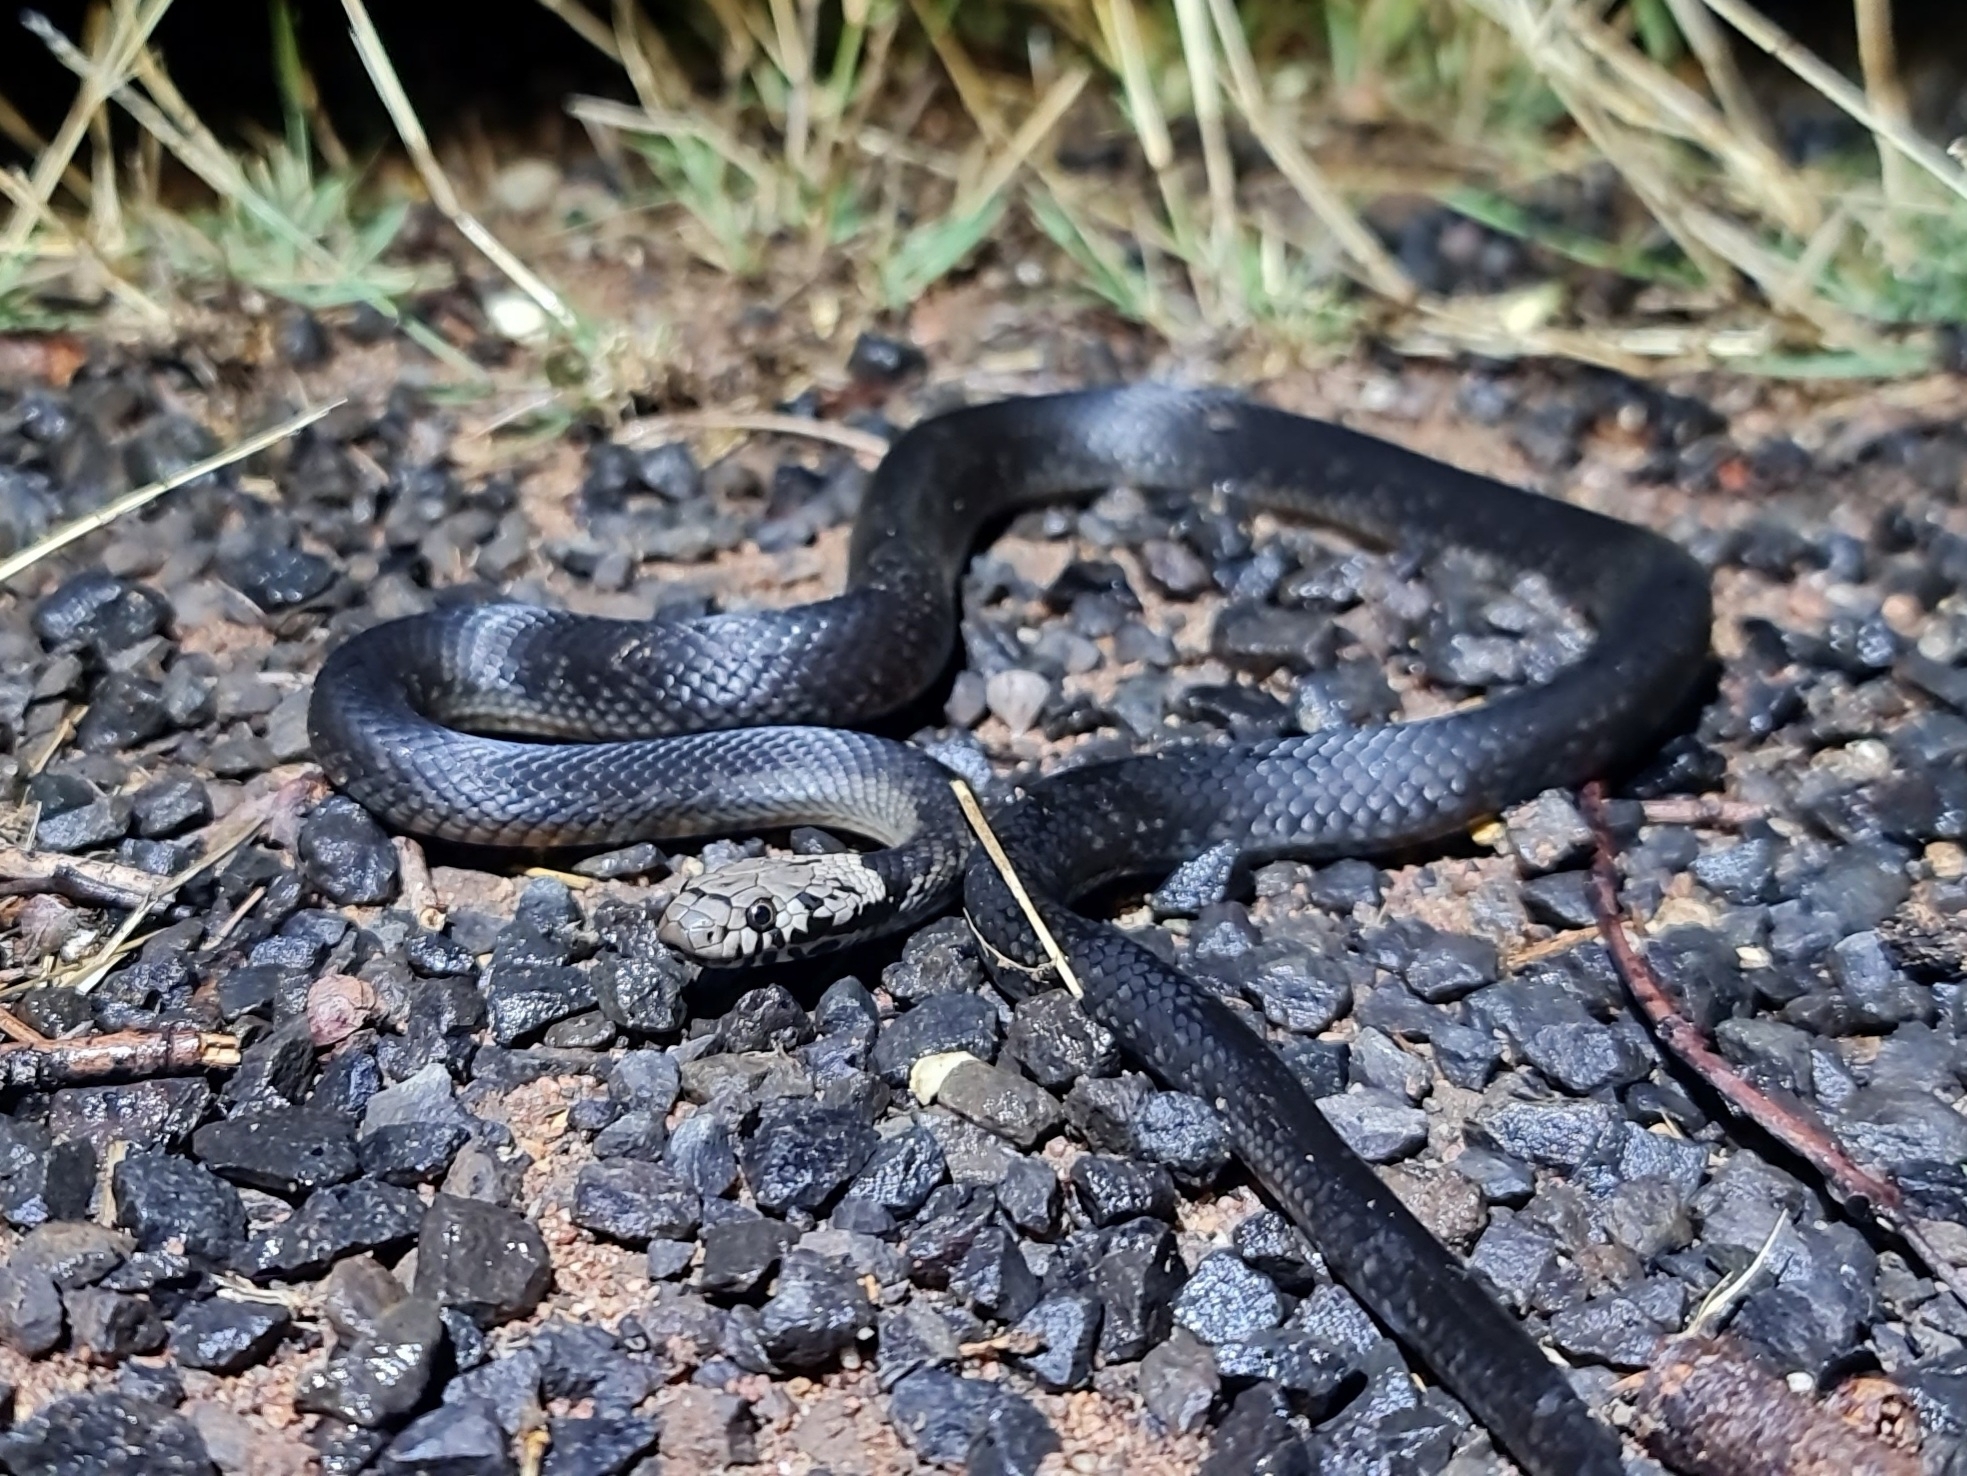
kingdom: Animalia
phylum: Chordata
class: Squamata
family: Elapidae
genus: Hoplocephalus
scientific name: Hoplocephalus bitorquatus
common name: Pale-headed snake
